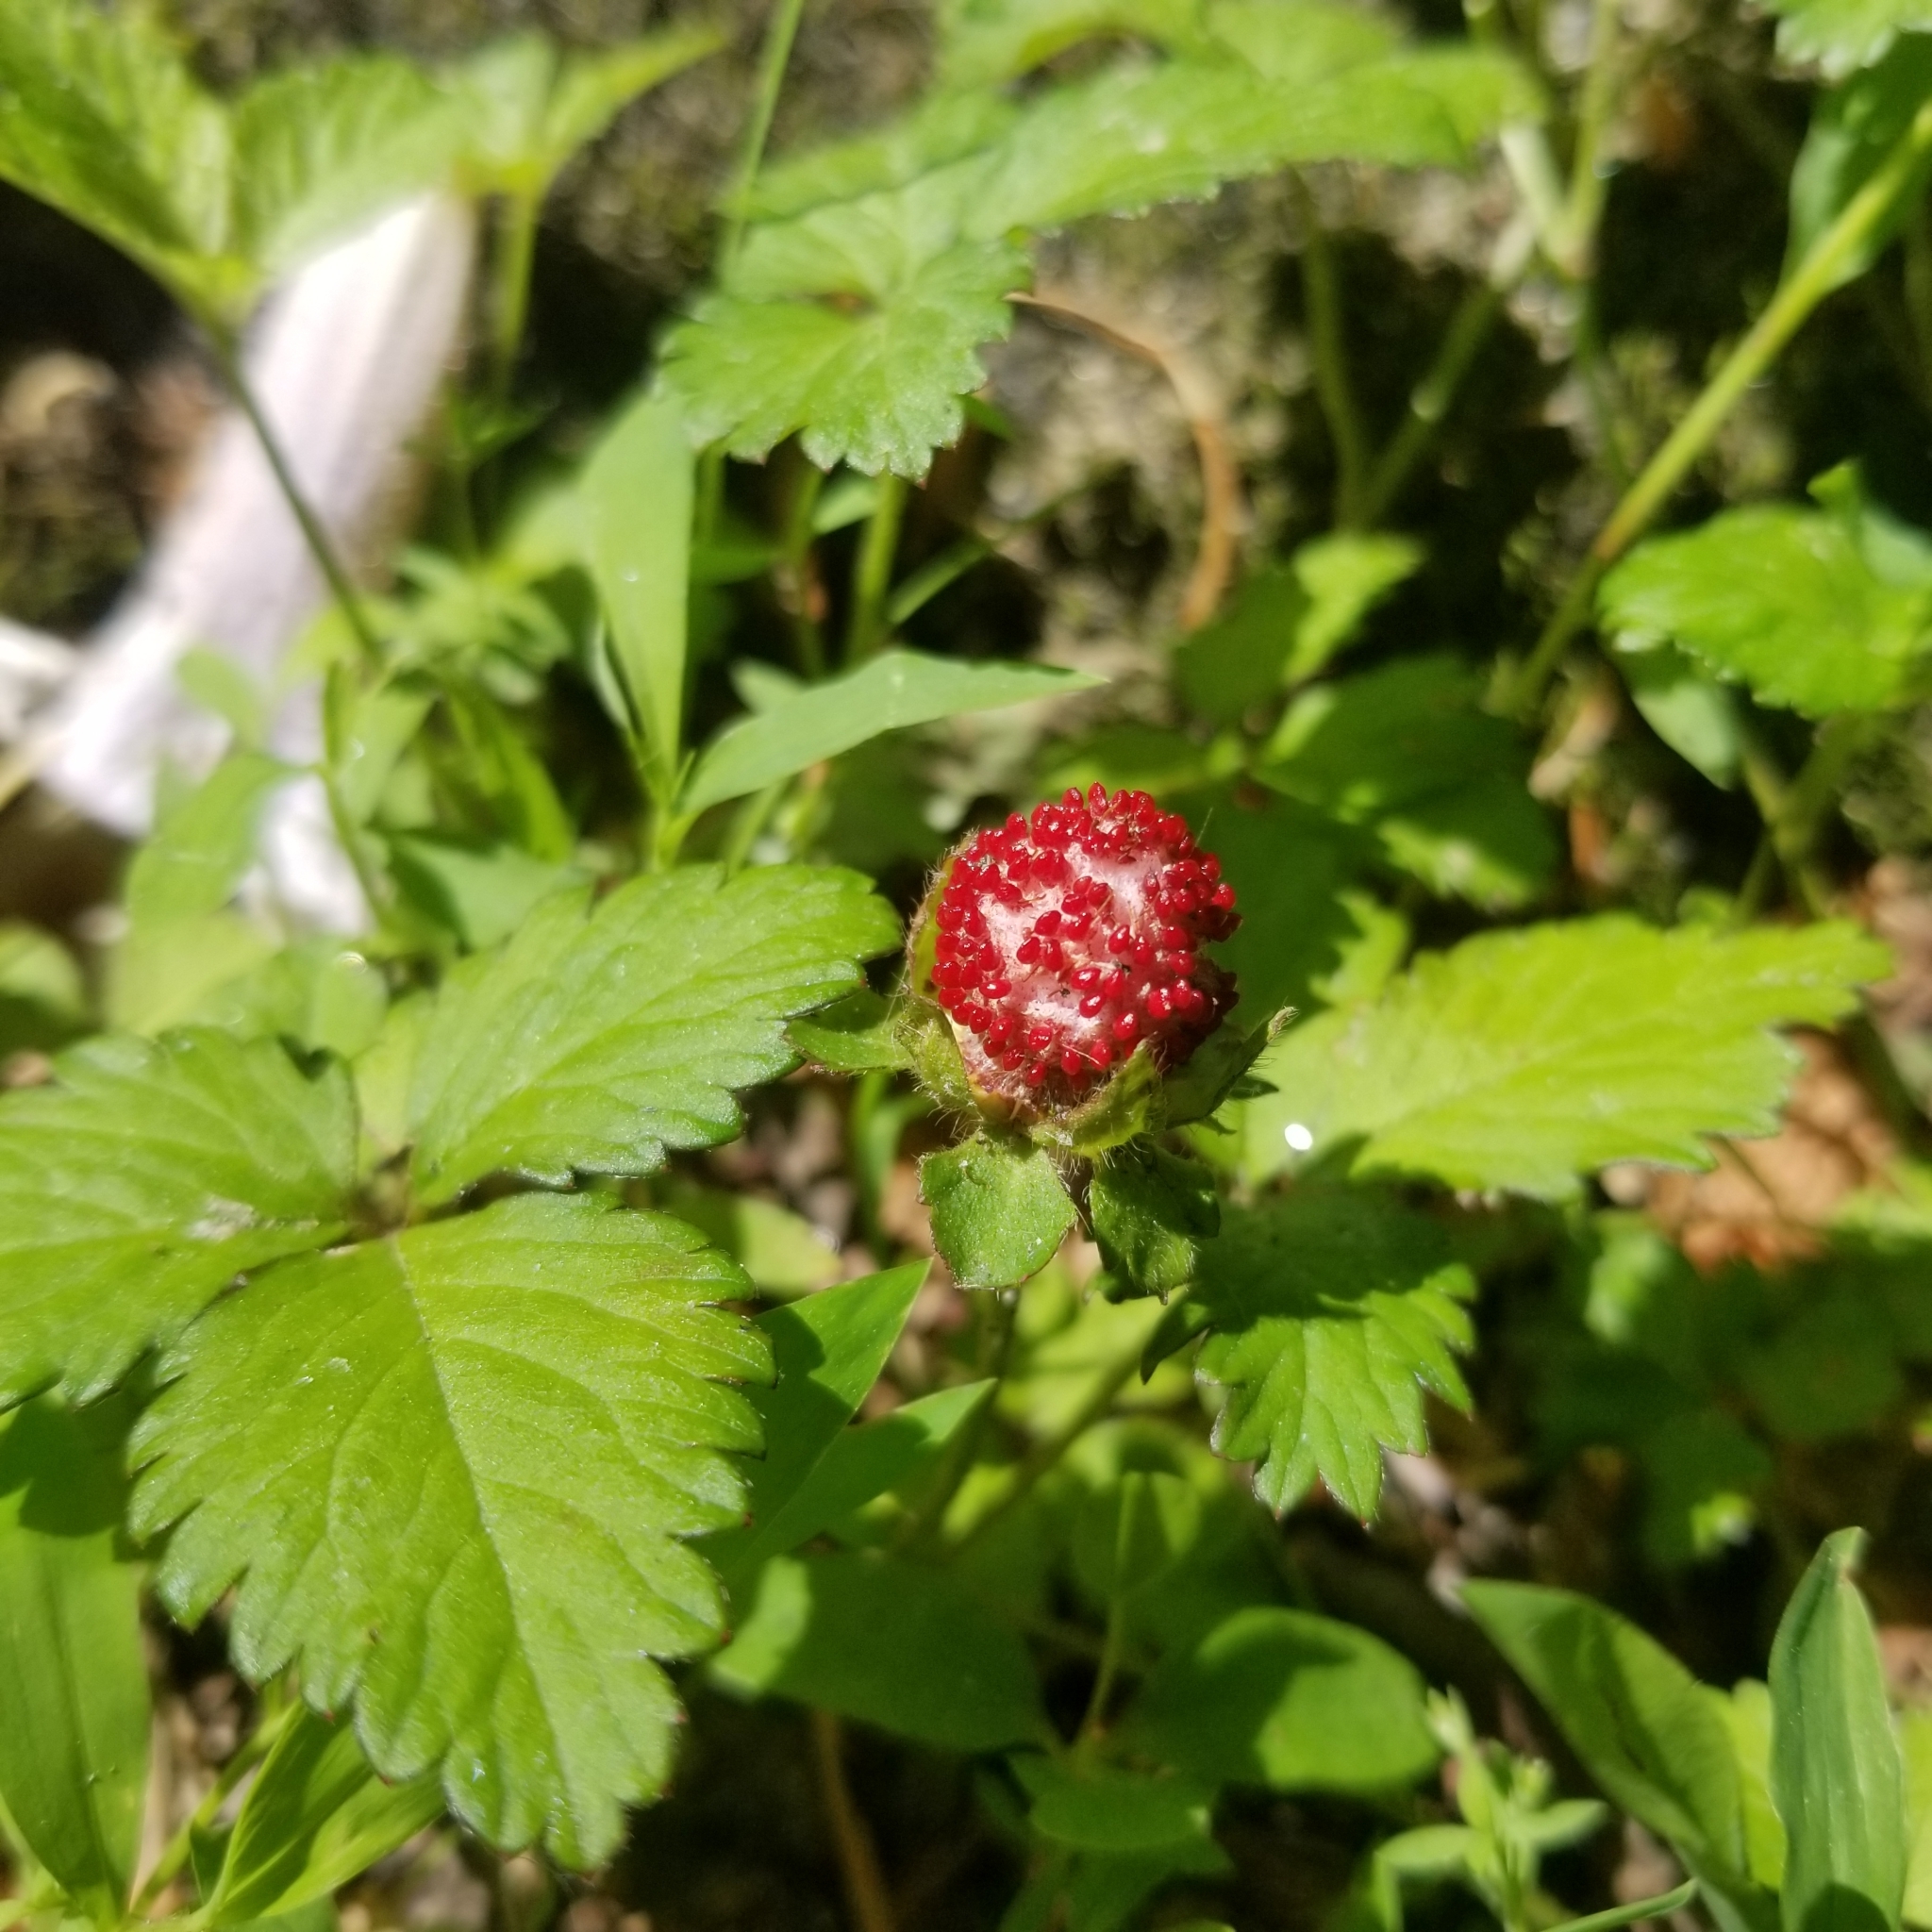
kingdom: Plantae
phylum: Tracheophyta
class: Magnoliopsida
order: Rosales
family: Rosaceae
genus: Potentilla
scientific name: Potentilla indica
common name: Yellow-flowered strawberry
